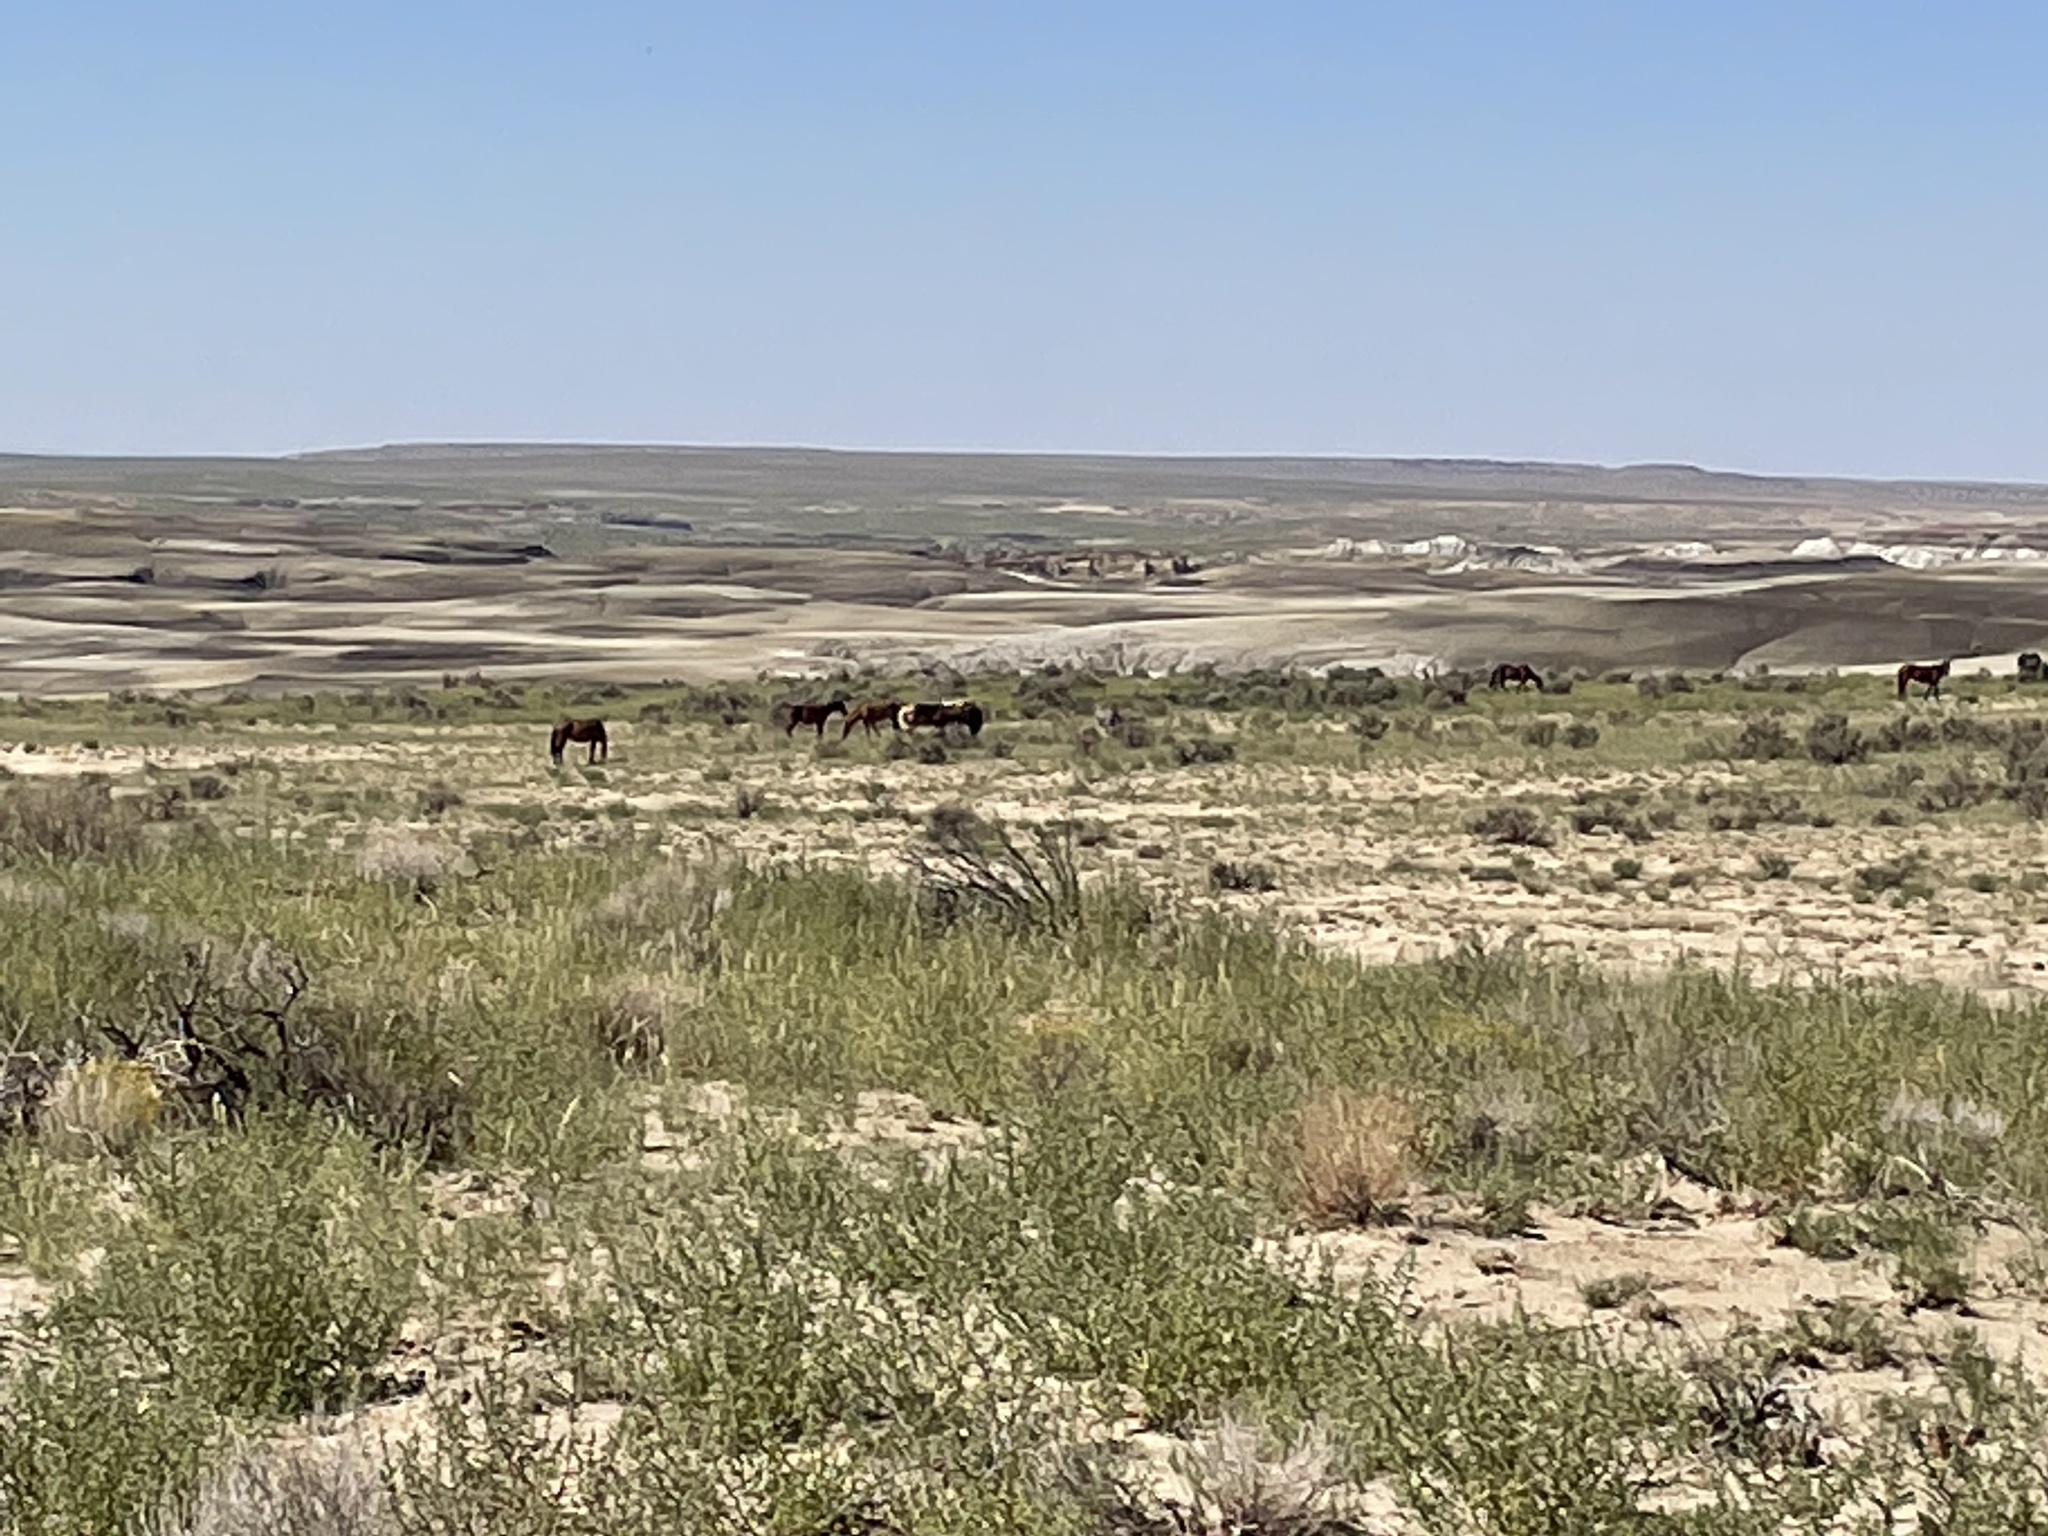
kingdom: Animalia
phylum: Chordata
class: Mammalia
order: Perissodactyla
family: Equidae
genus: Equus
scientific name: Equus caballus
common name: Horse
